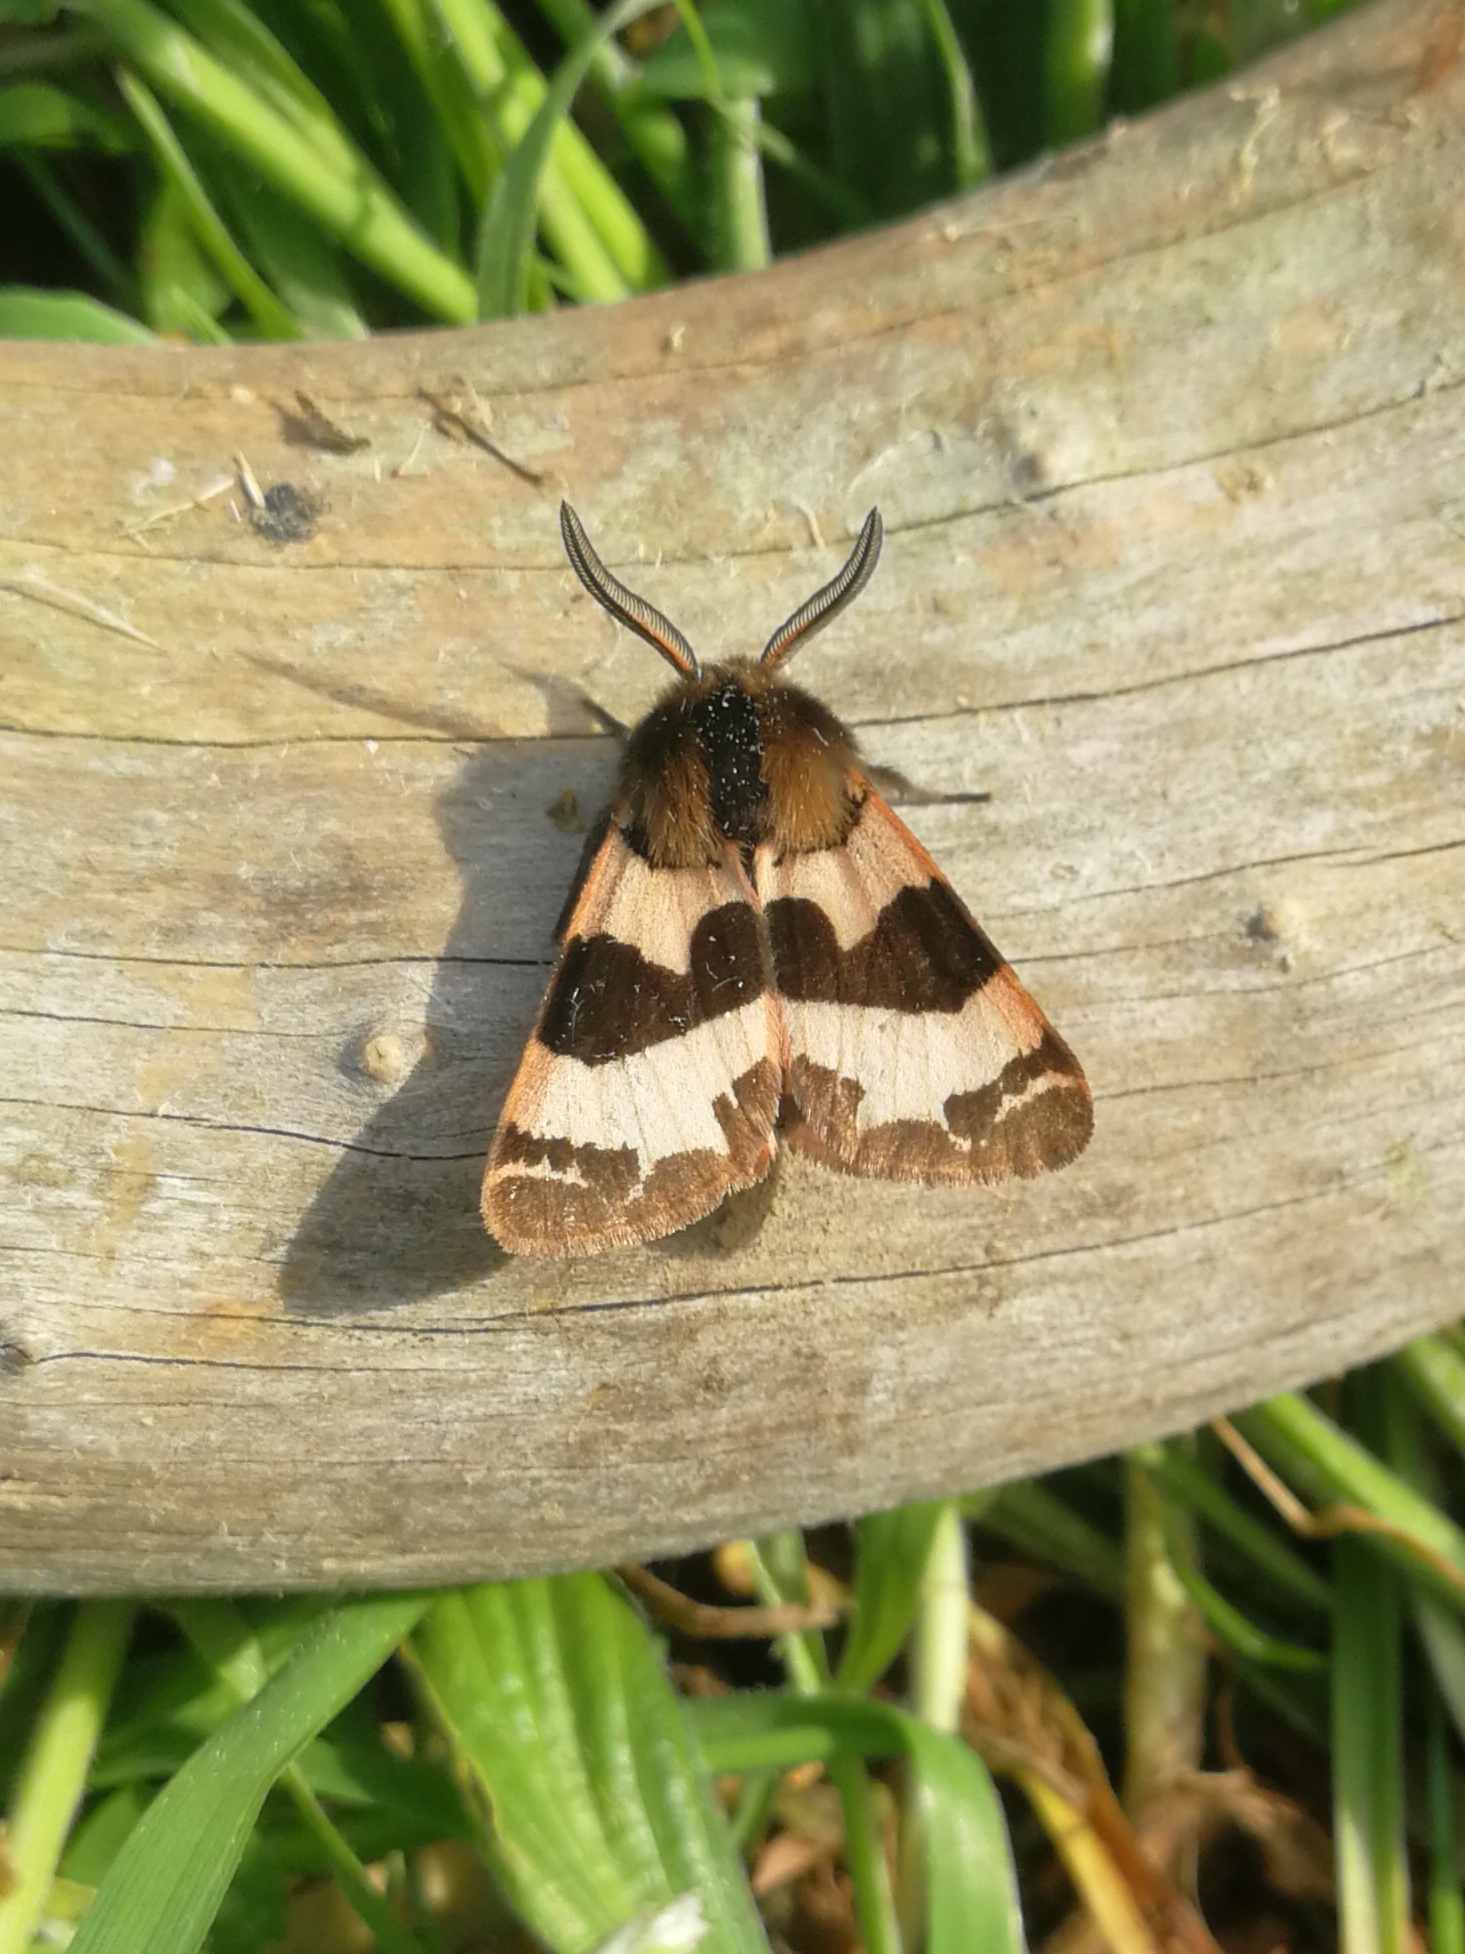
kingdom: Animalia
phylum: Arthropoda
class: Insecta
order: Lepidoptera
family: Erebidae
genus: Watsonarctia
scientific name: Watsonarctia deserta
